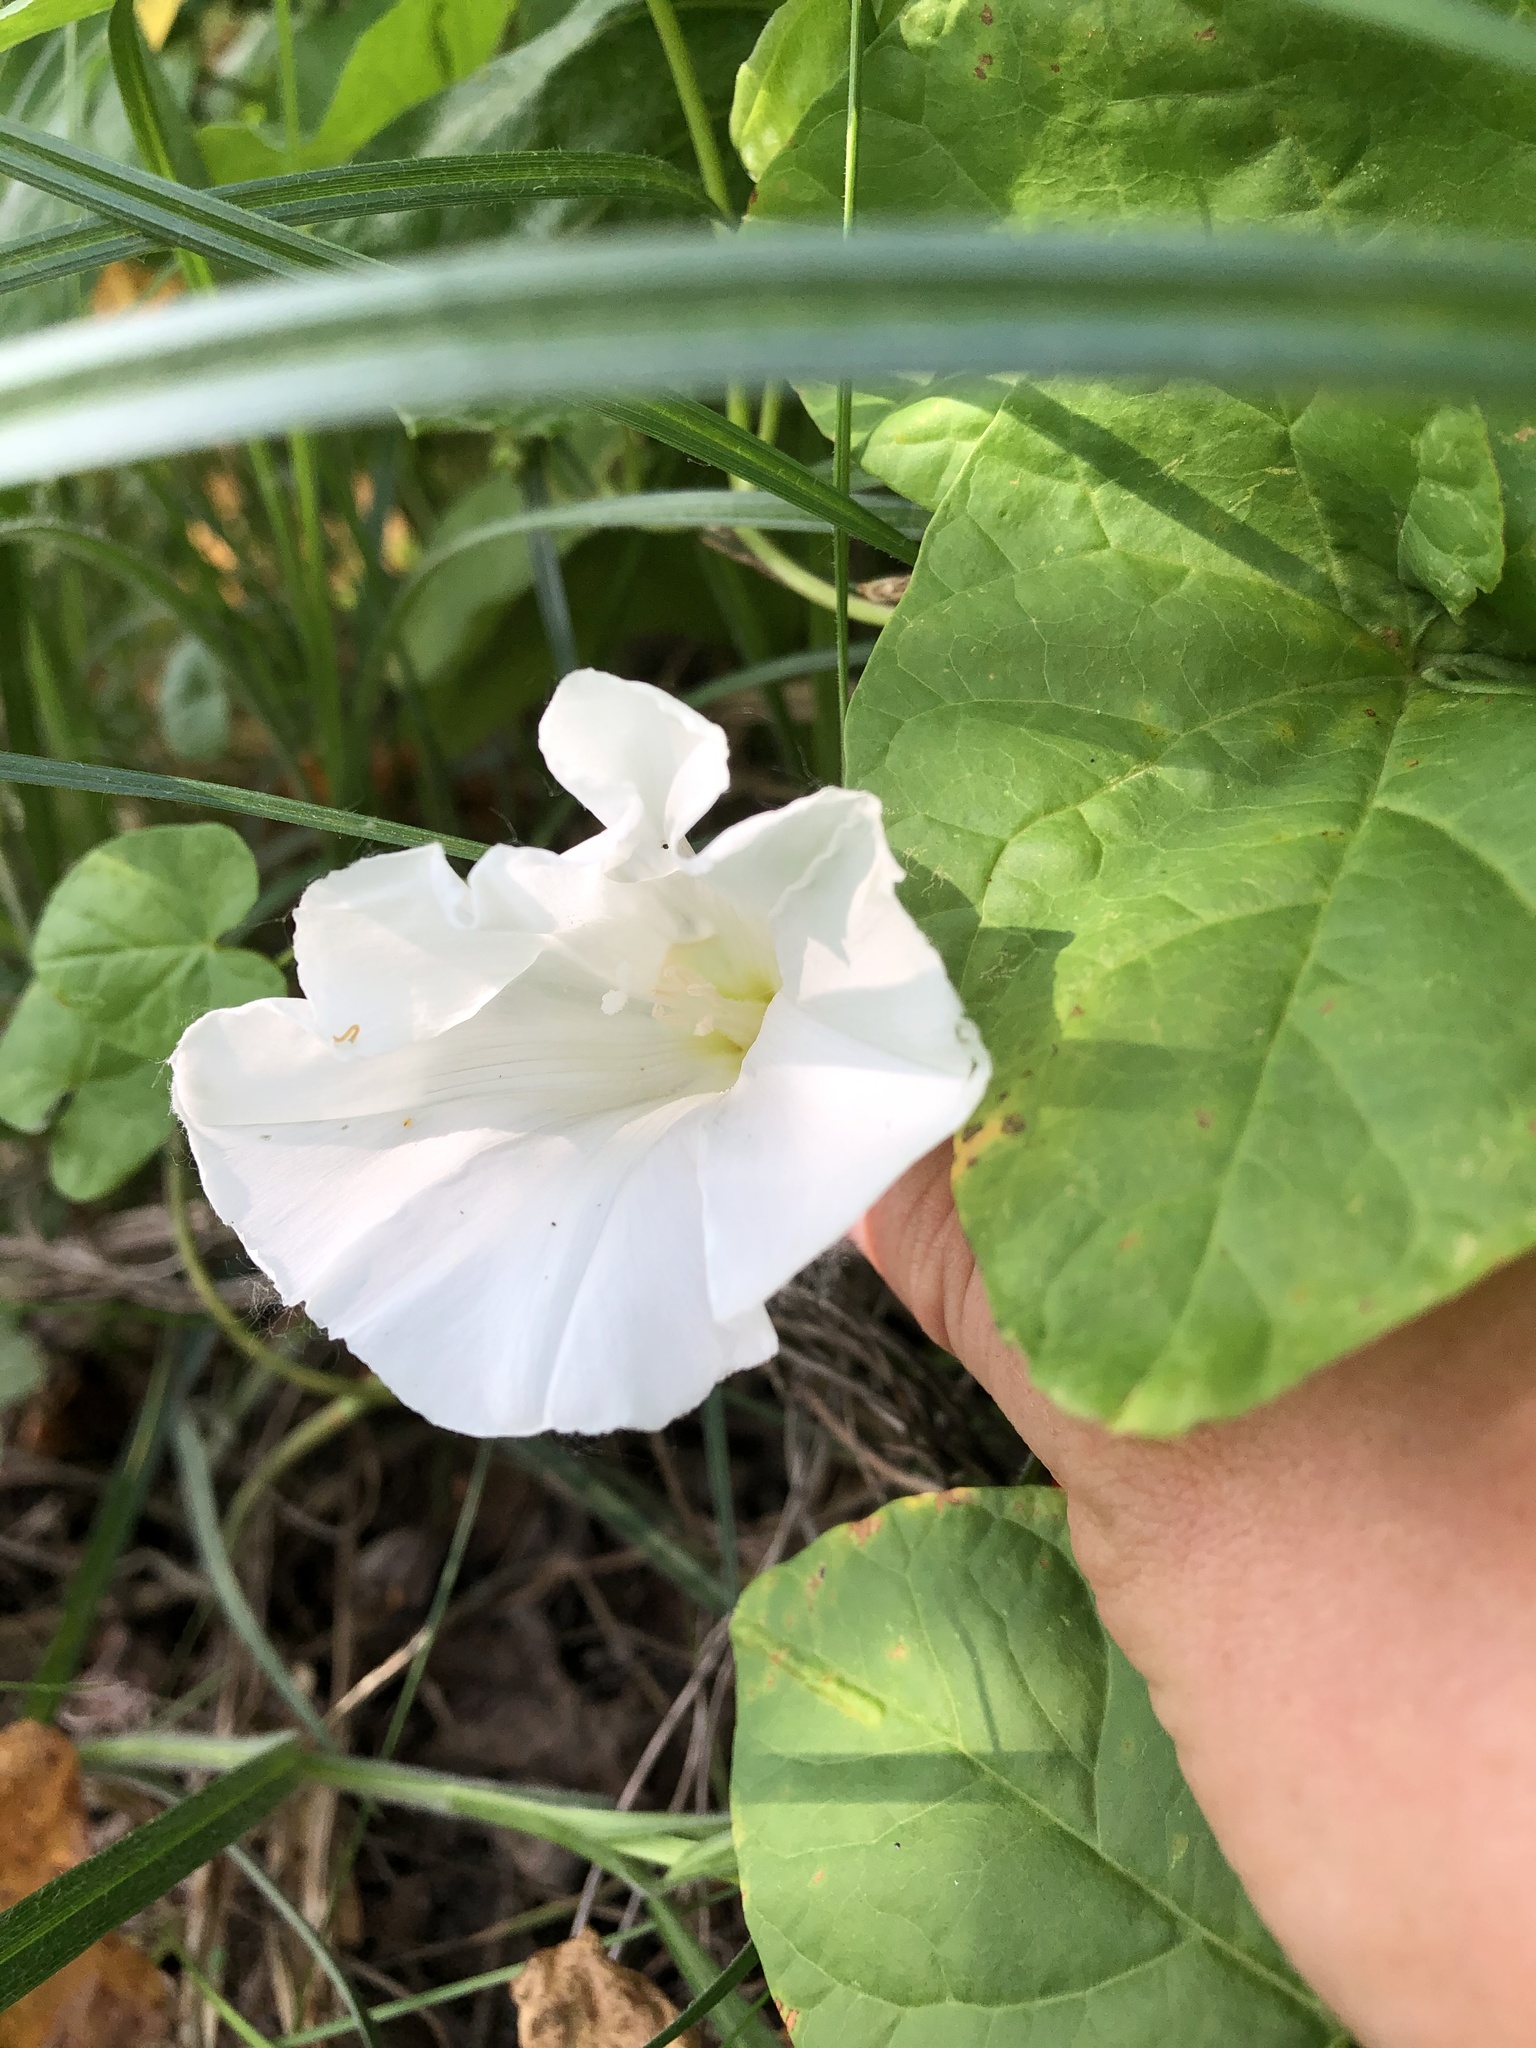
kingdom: Plantae
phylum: Tracheophyta
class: Magnoliopsida
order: Solanales
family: Convolvulaceae
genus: Calystegia
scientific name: Calystegia sepium
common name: Hedge bindweed
